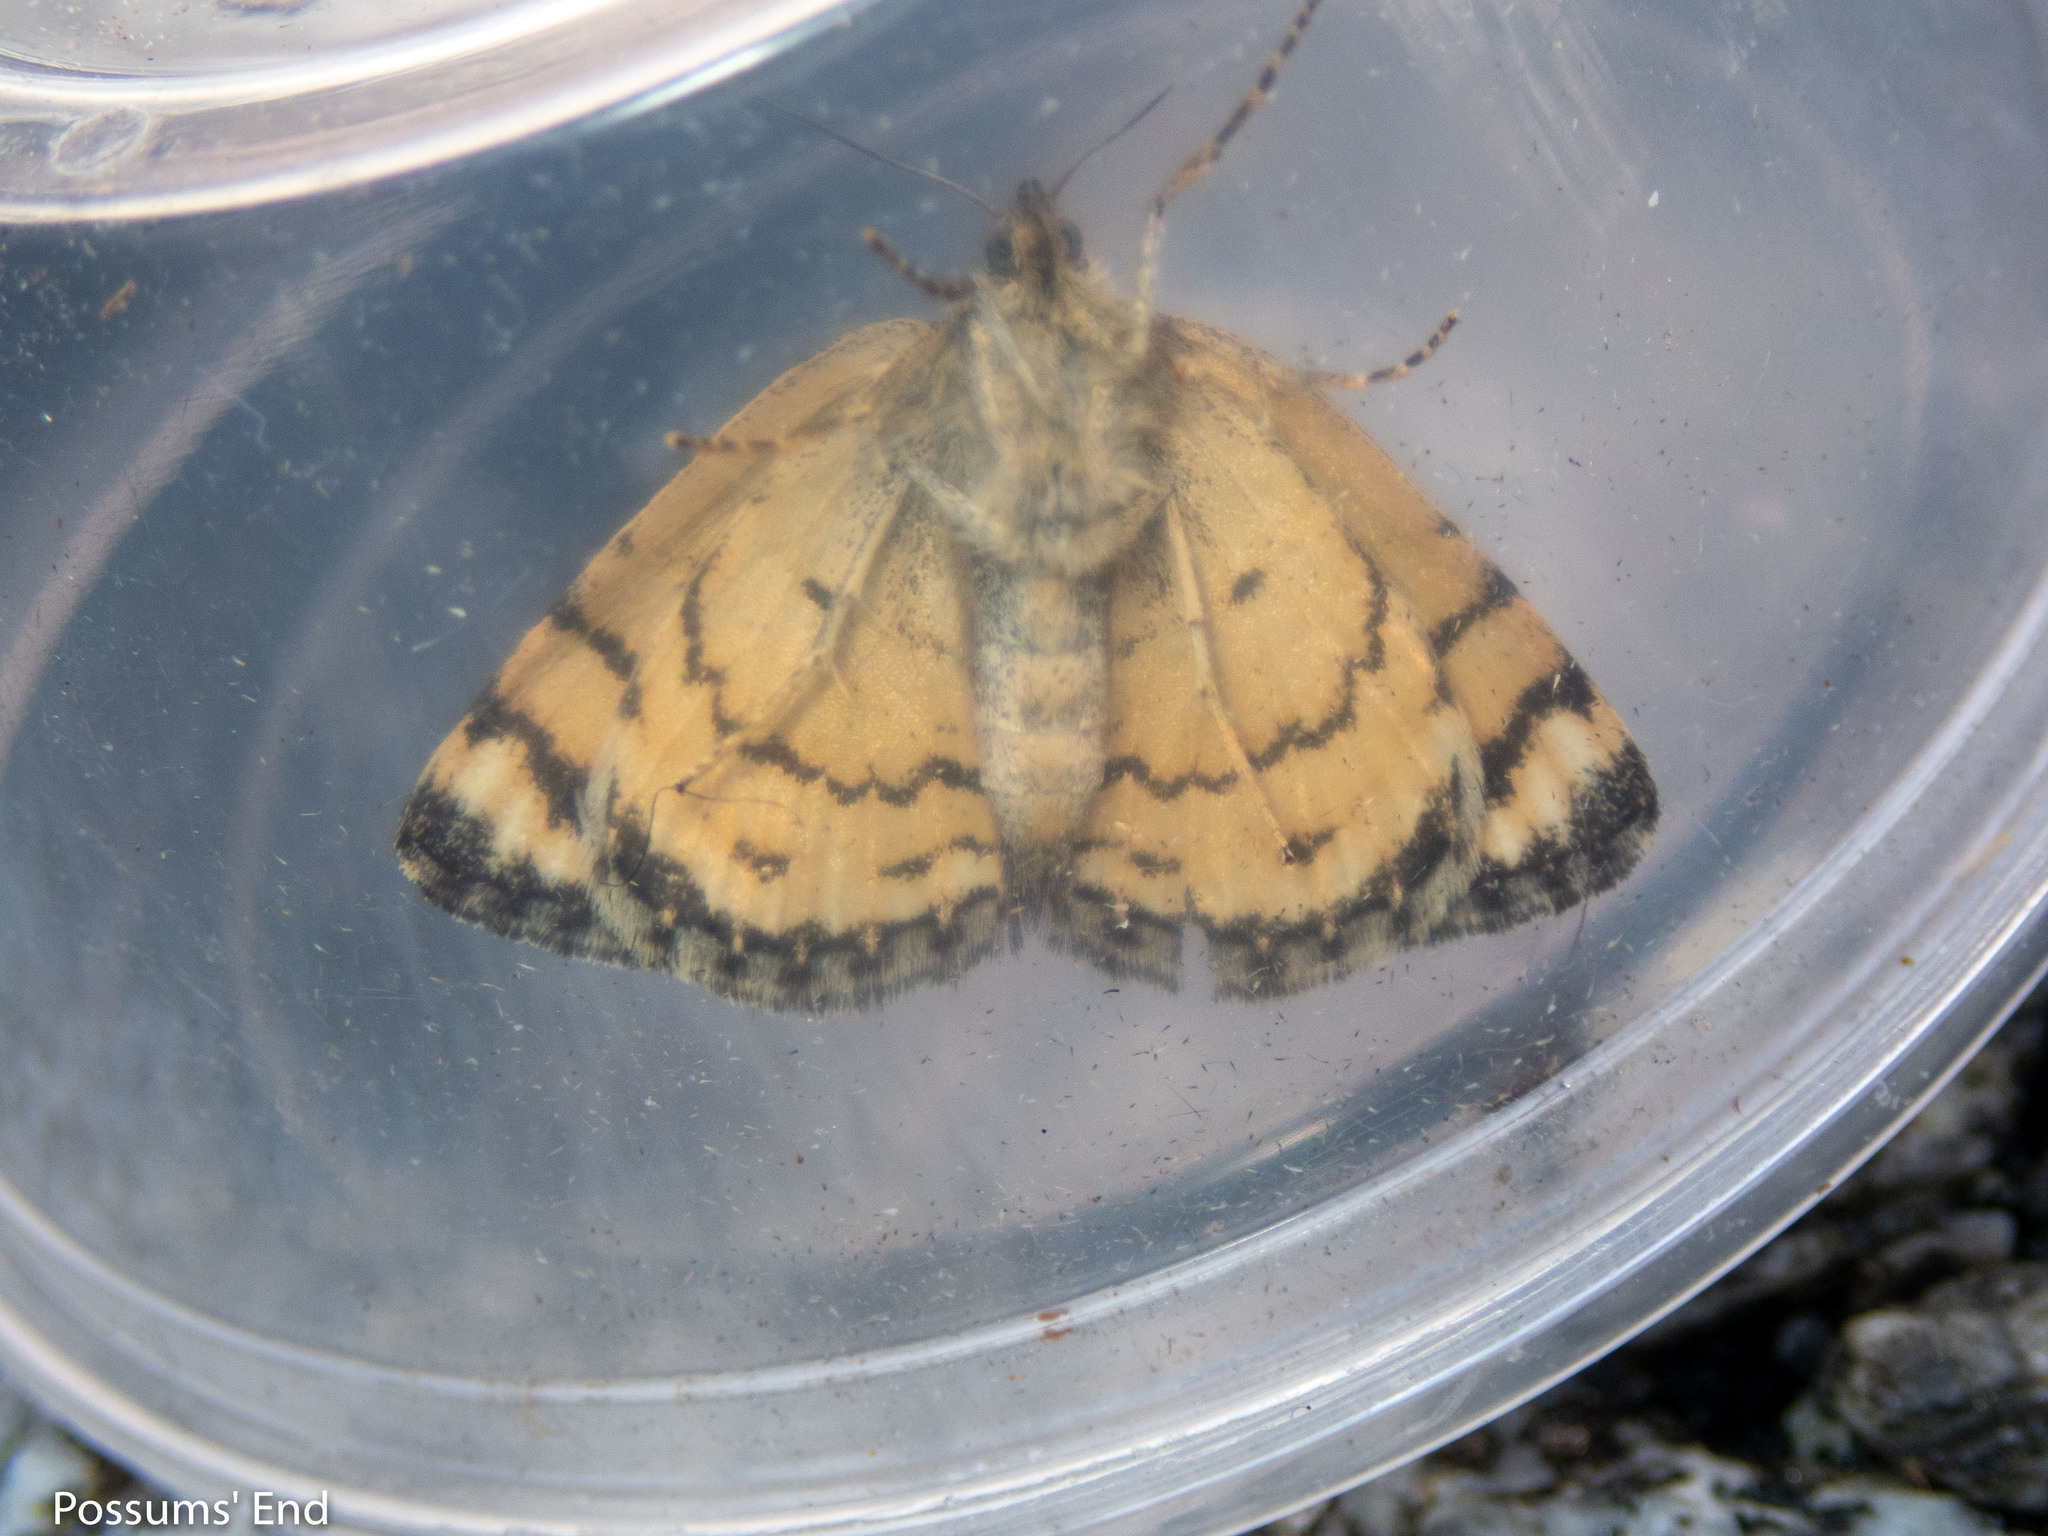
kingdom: Animalia
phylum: Arthropoda
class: Insecta
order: Lepidoptera
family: Geometridae
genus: Dasyuris
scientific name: Dasyuris austrina
